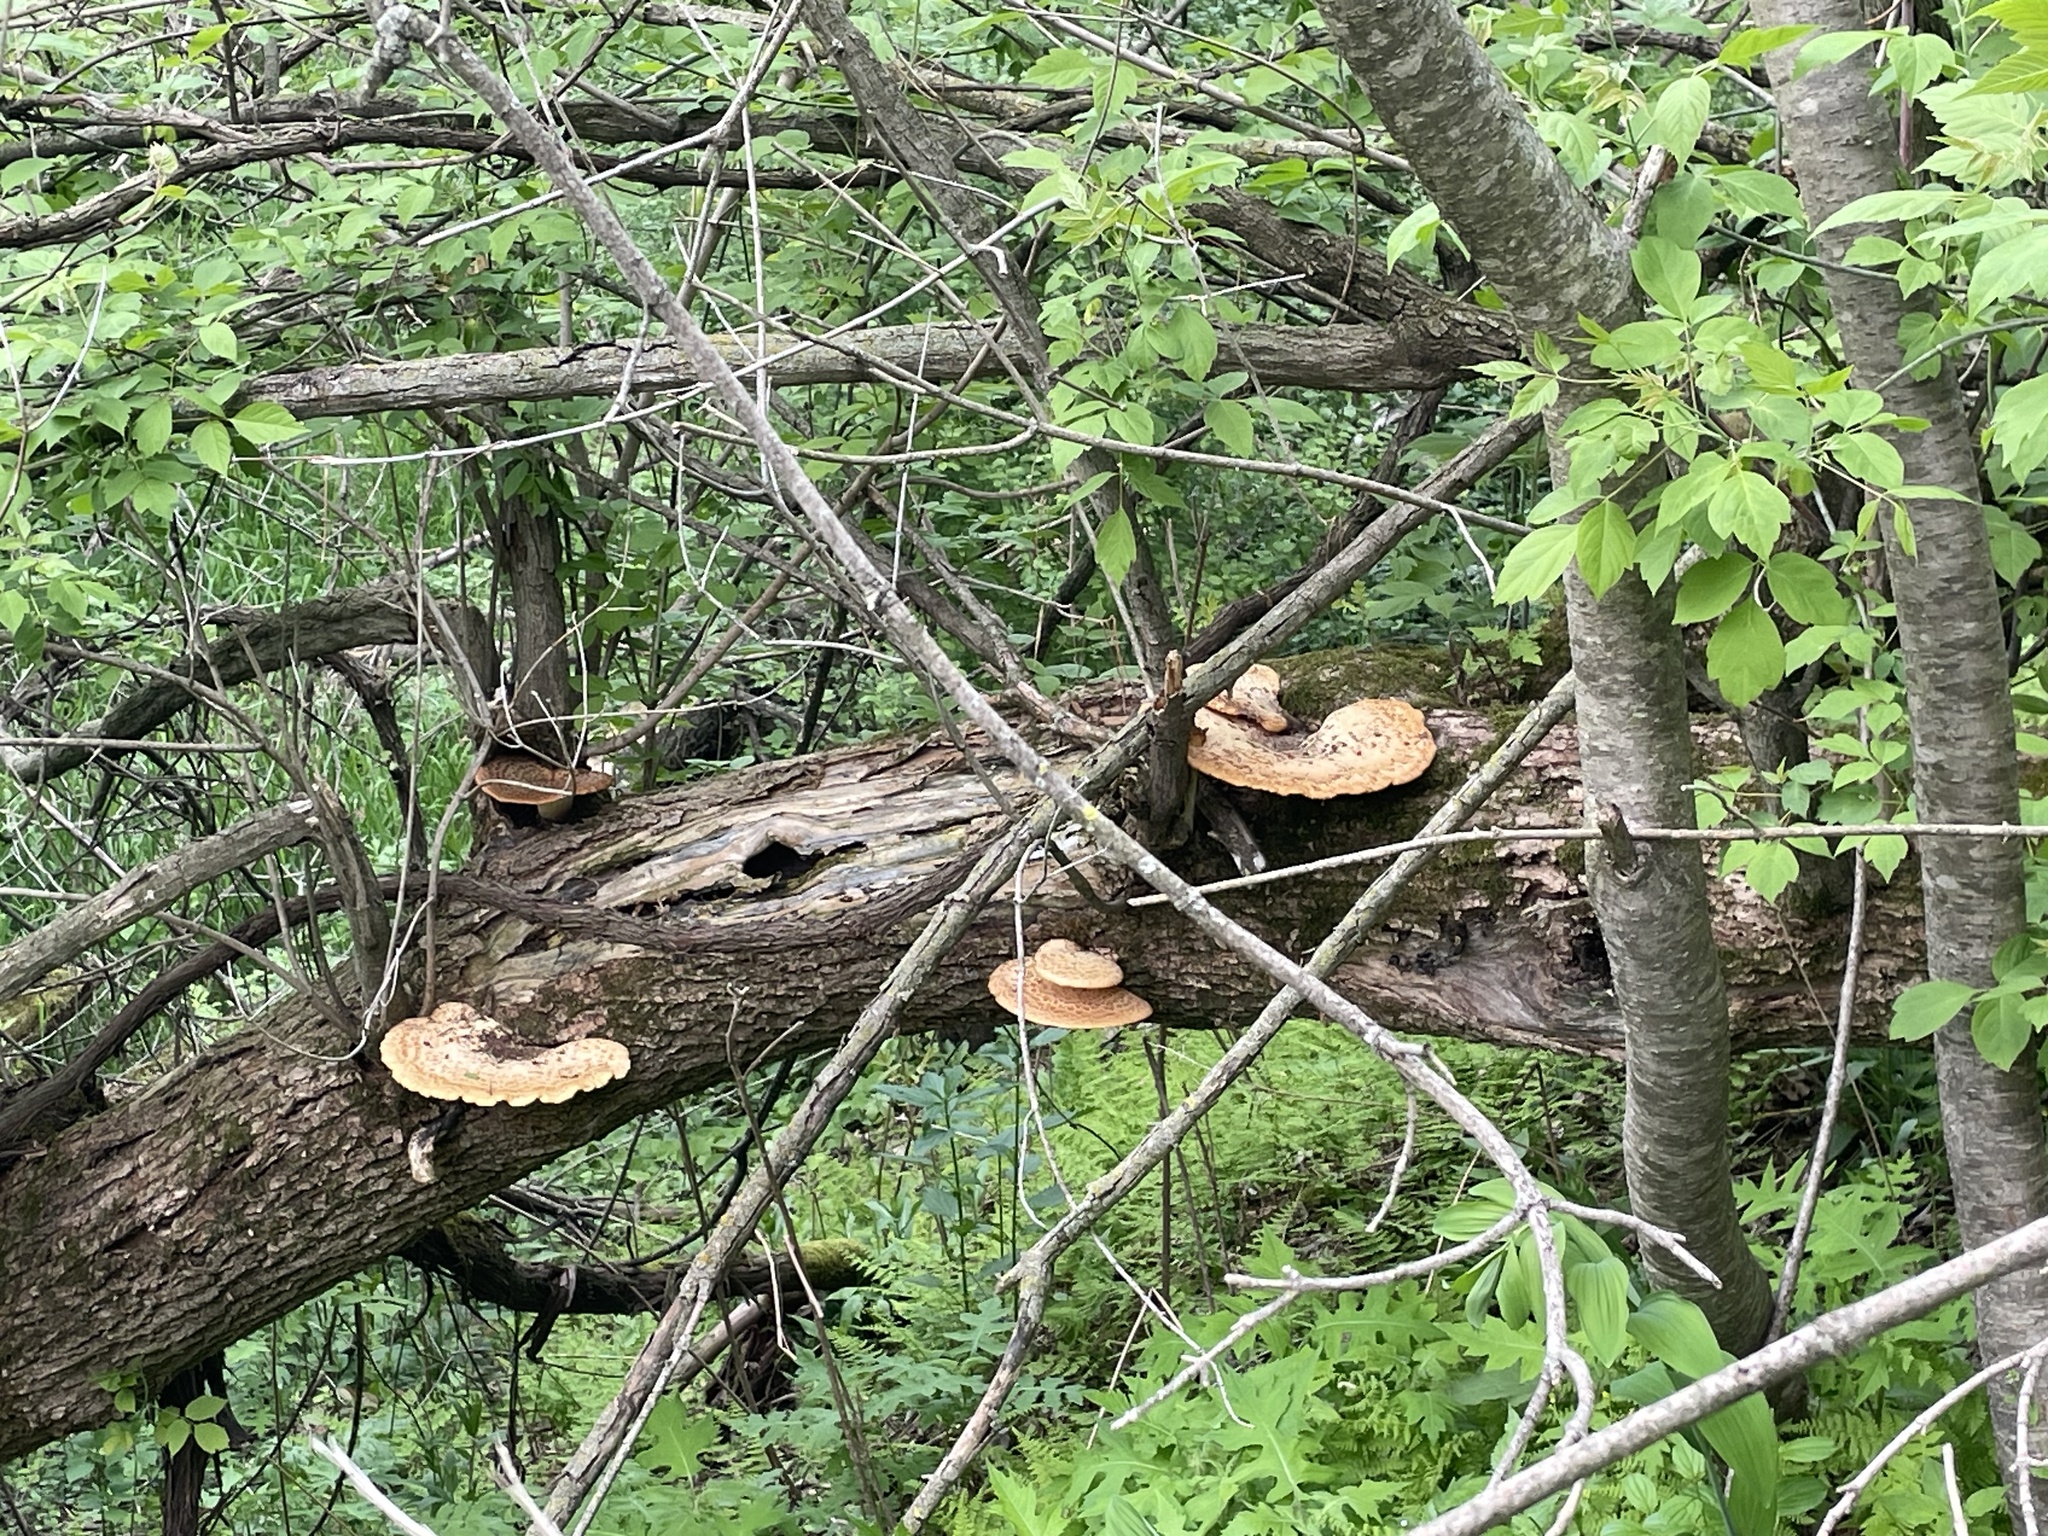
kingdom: Fungi
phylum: Basidiomycota
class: Agaricomycetes
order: Polyporales
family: Polyporaceae
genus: Cerioporus
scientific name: Cerioporus squamosus
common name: Dryad's saddle
